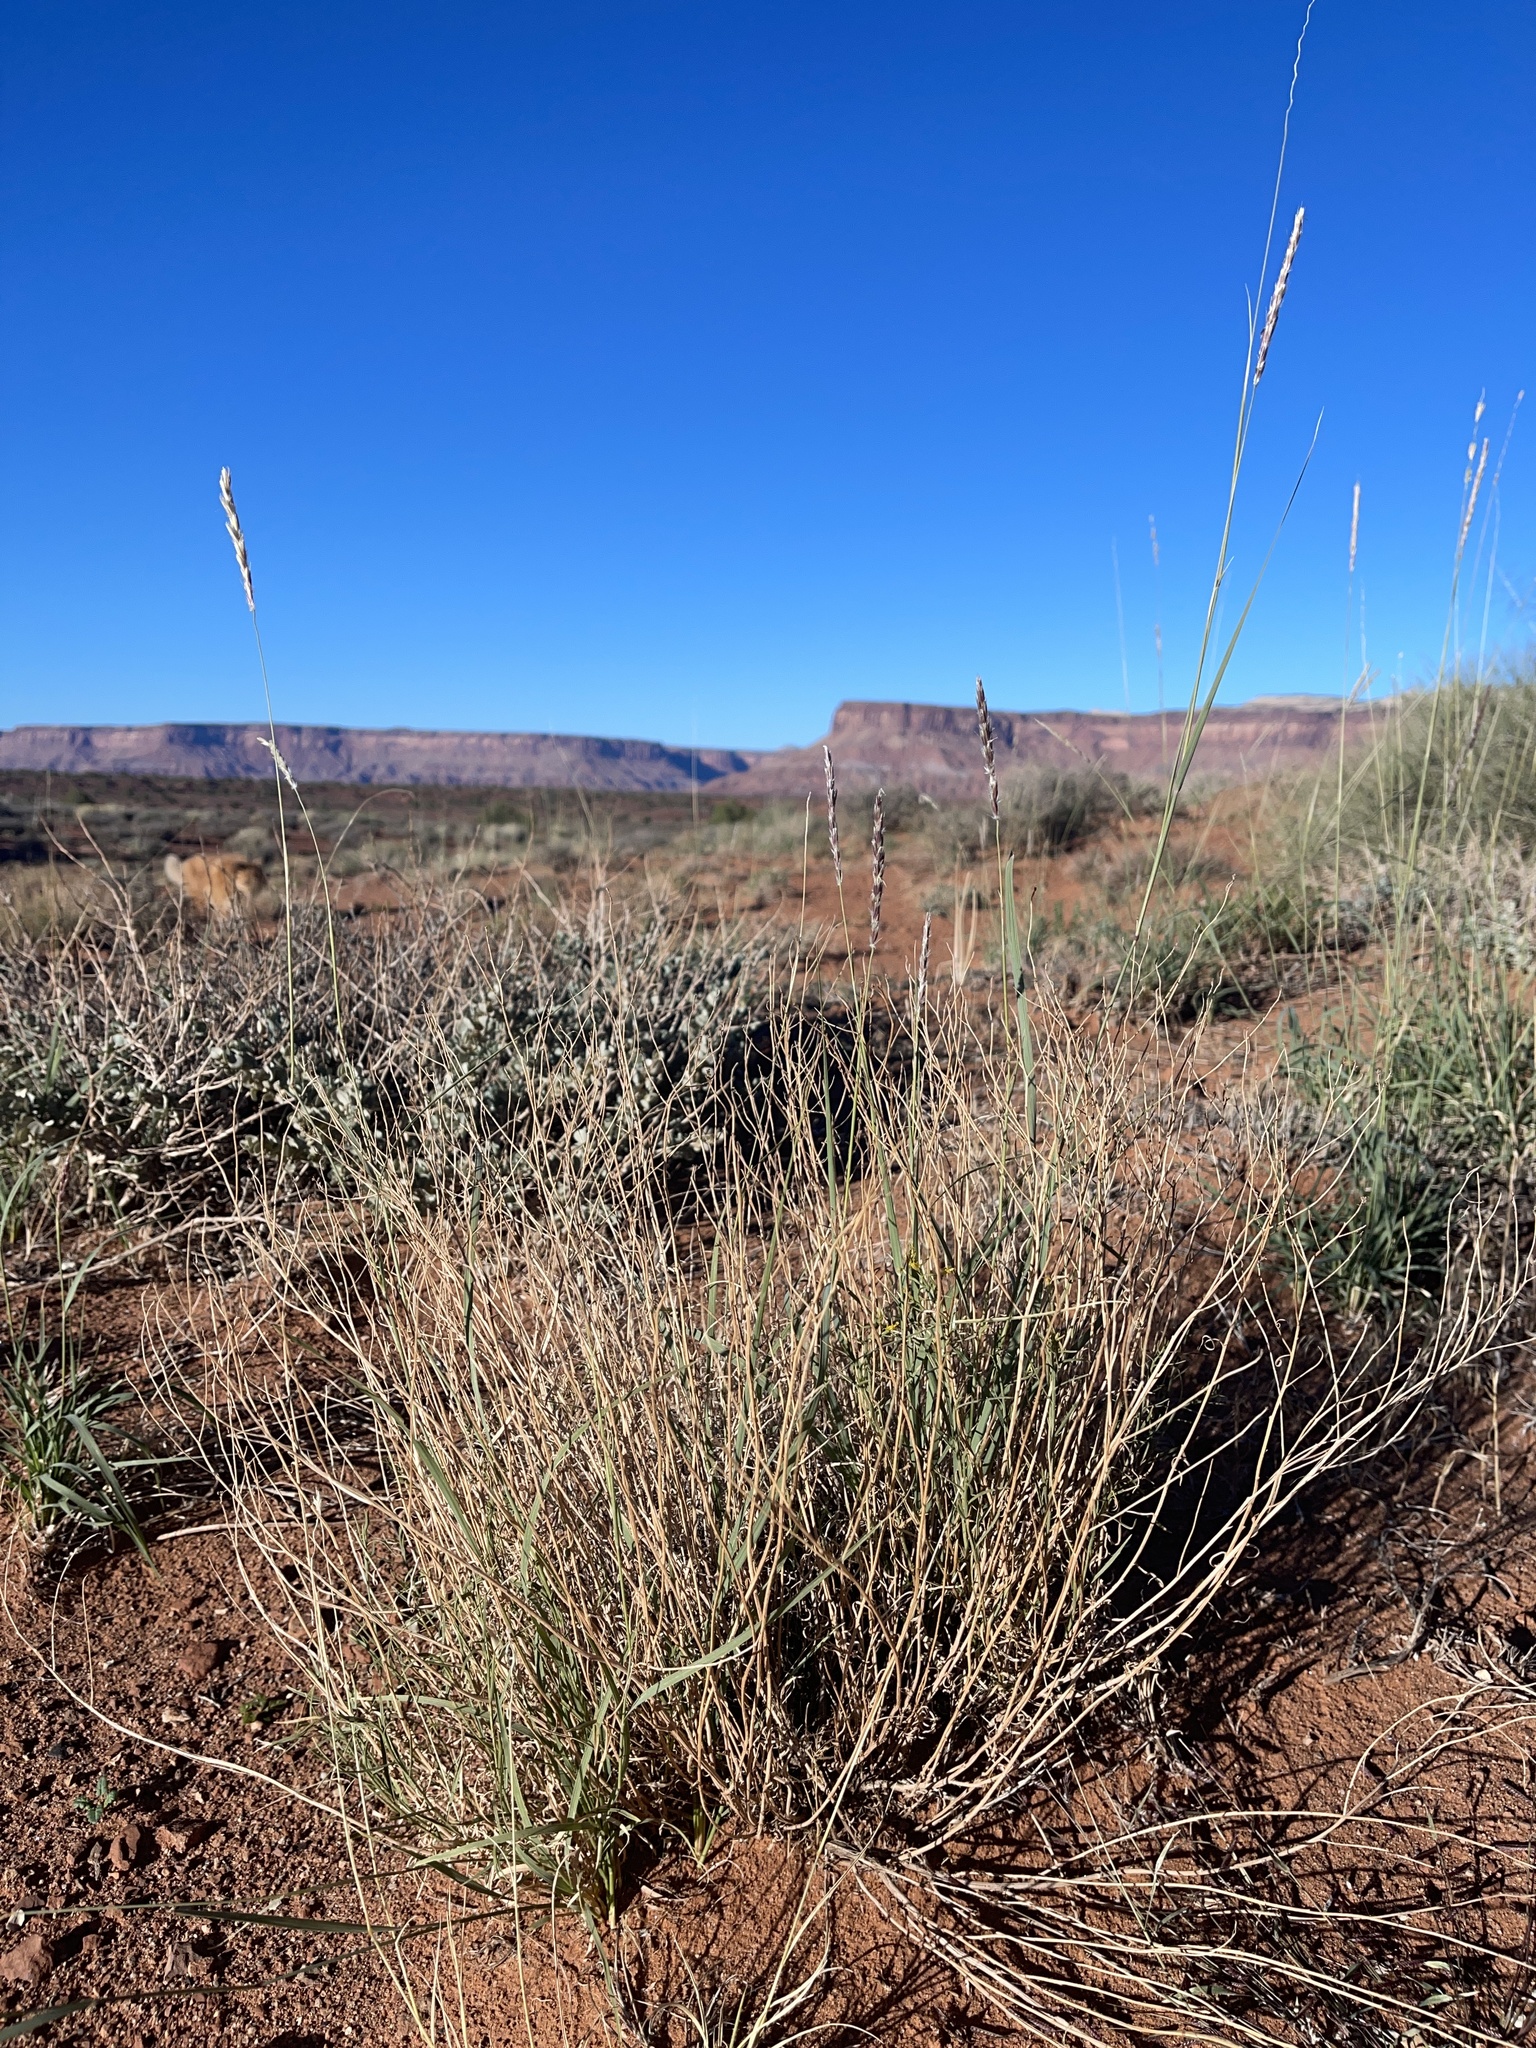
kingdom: Plantae
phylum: Tracheophyta
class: Liliopsida
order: Poales
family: Poaceae
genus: Hilaria
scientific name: Hilaria jamesii
